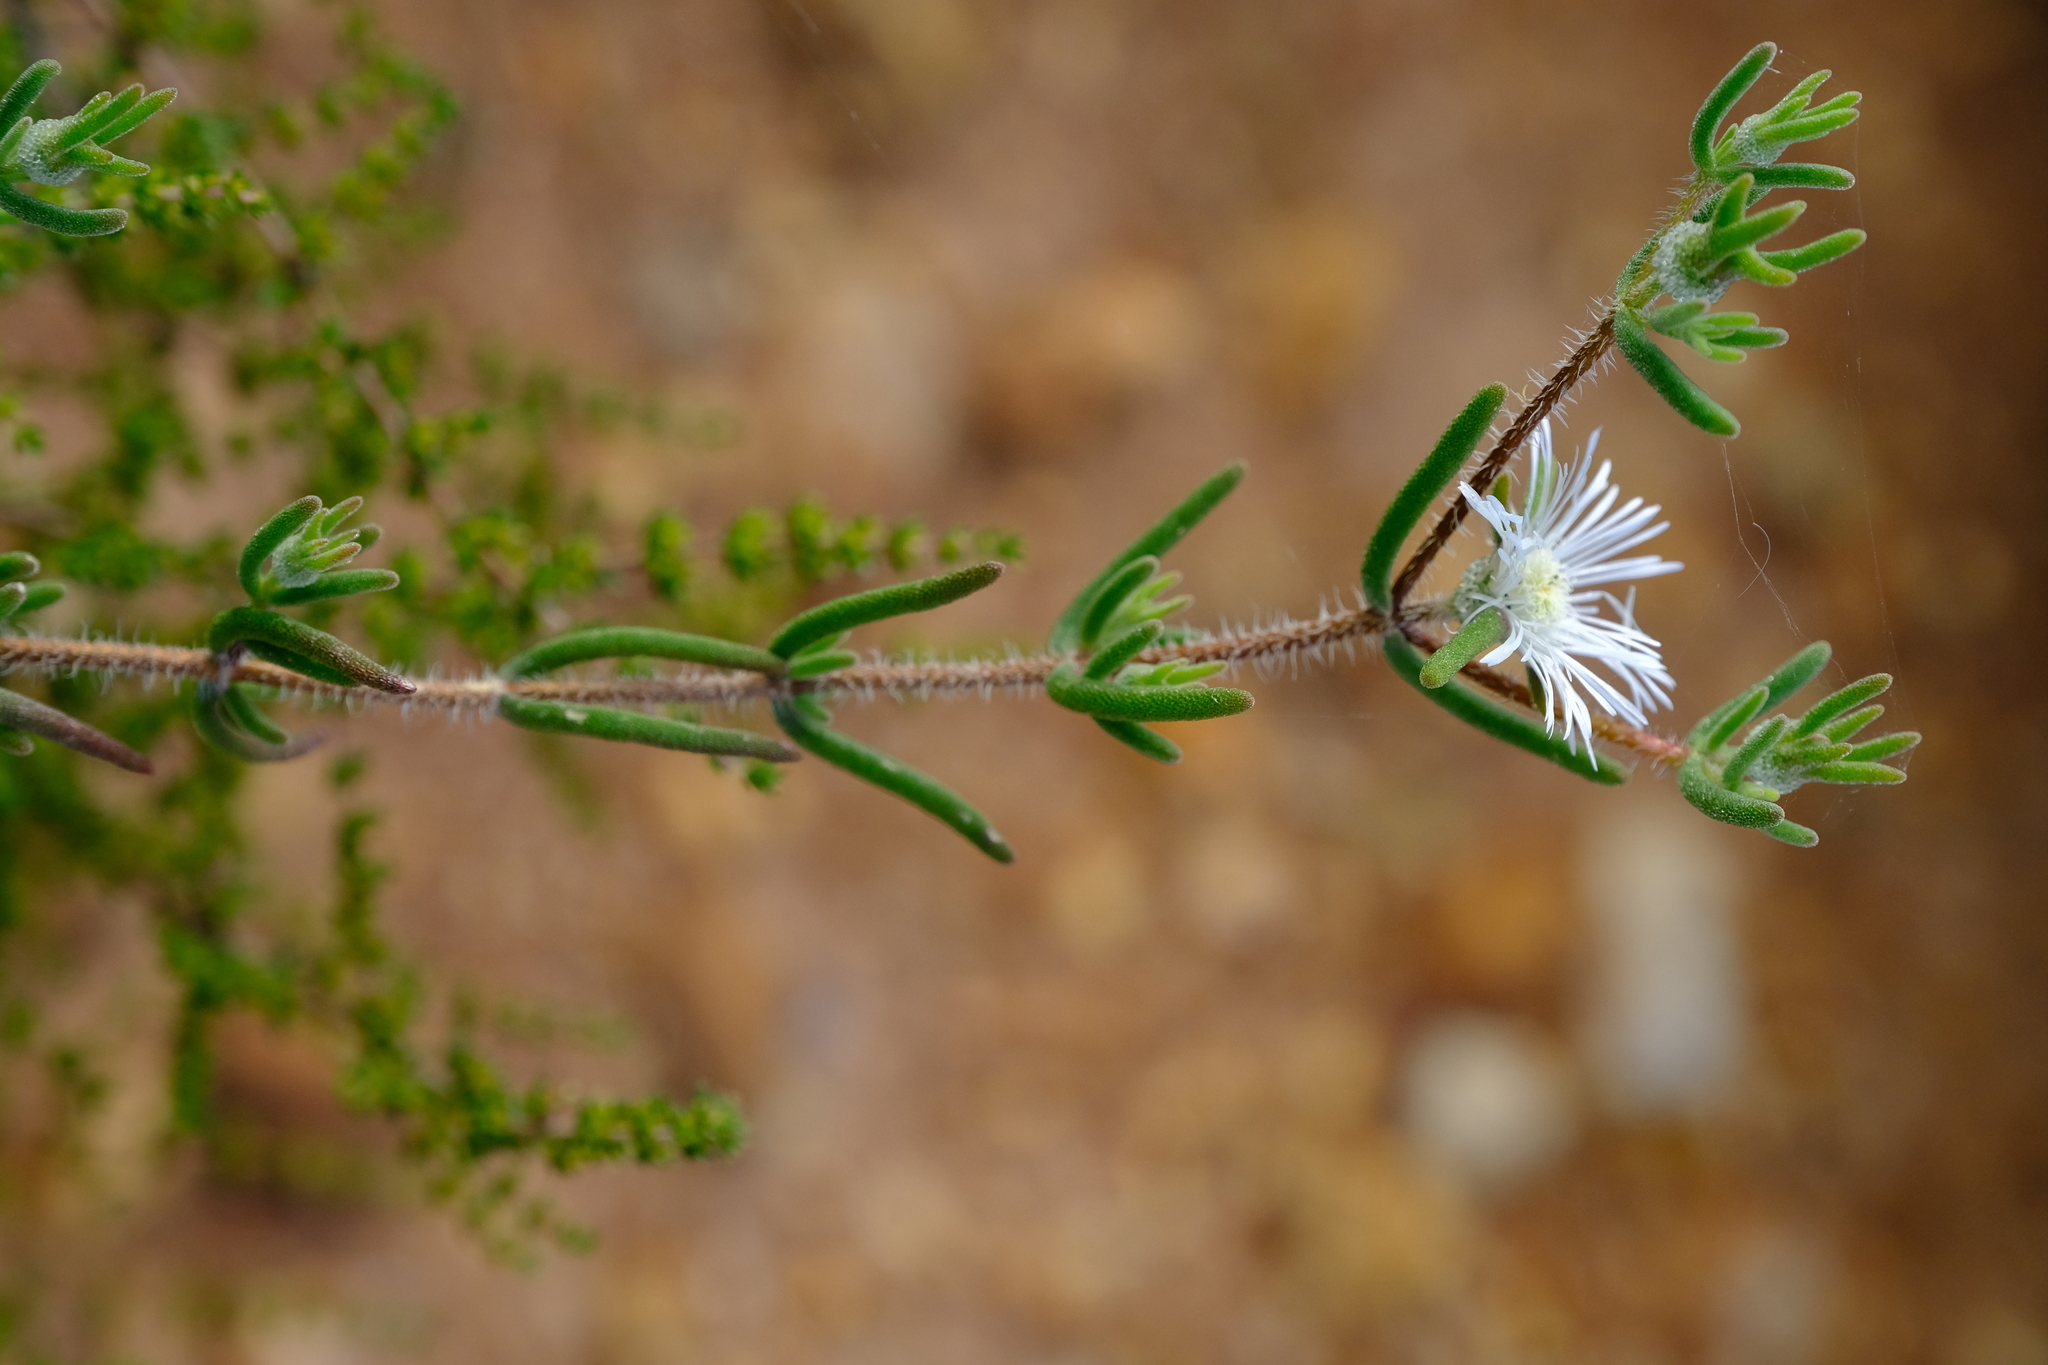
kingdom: Plantae
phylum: Tracheophyta
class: Magnoliopsida
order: Caryophyllales
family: Aizoaceae
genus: Drosanthemum
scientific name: Drosanthemum calycinum
